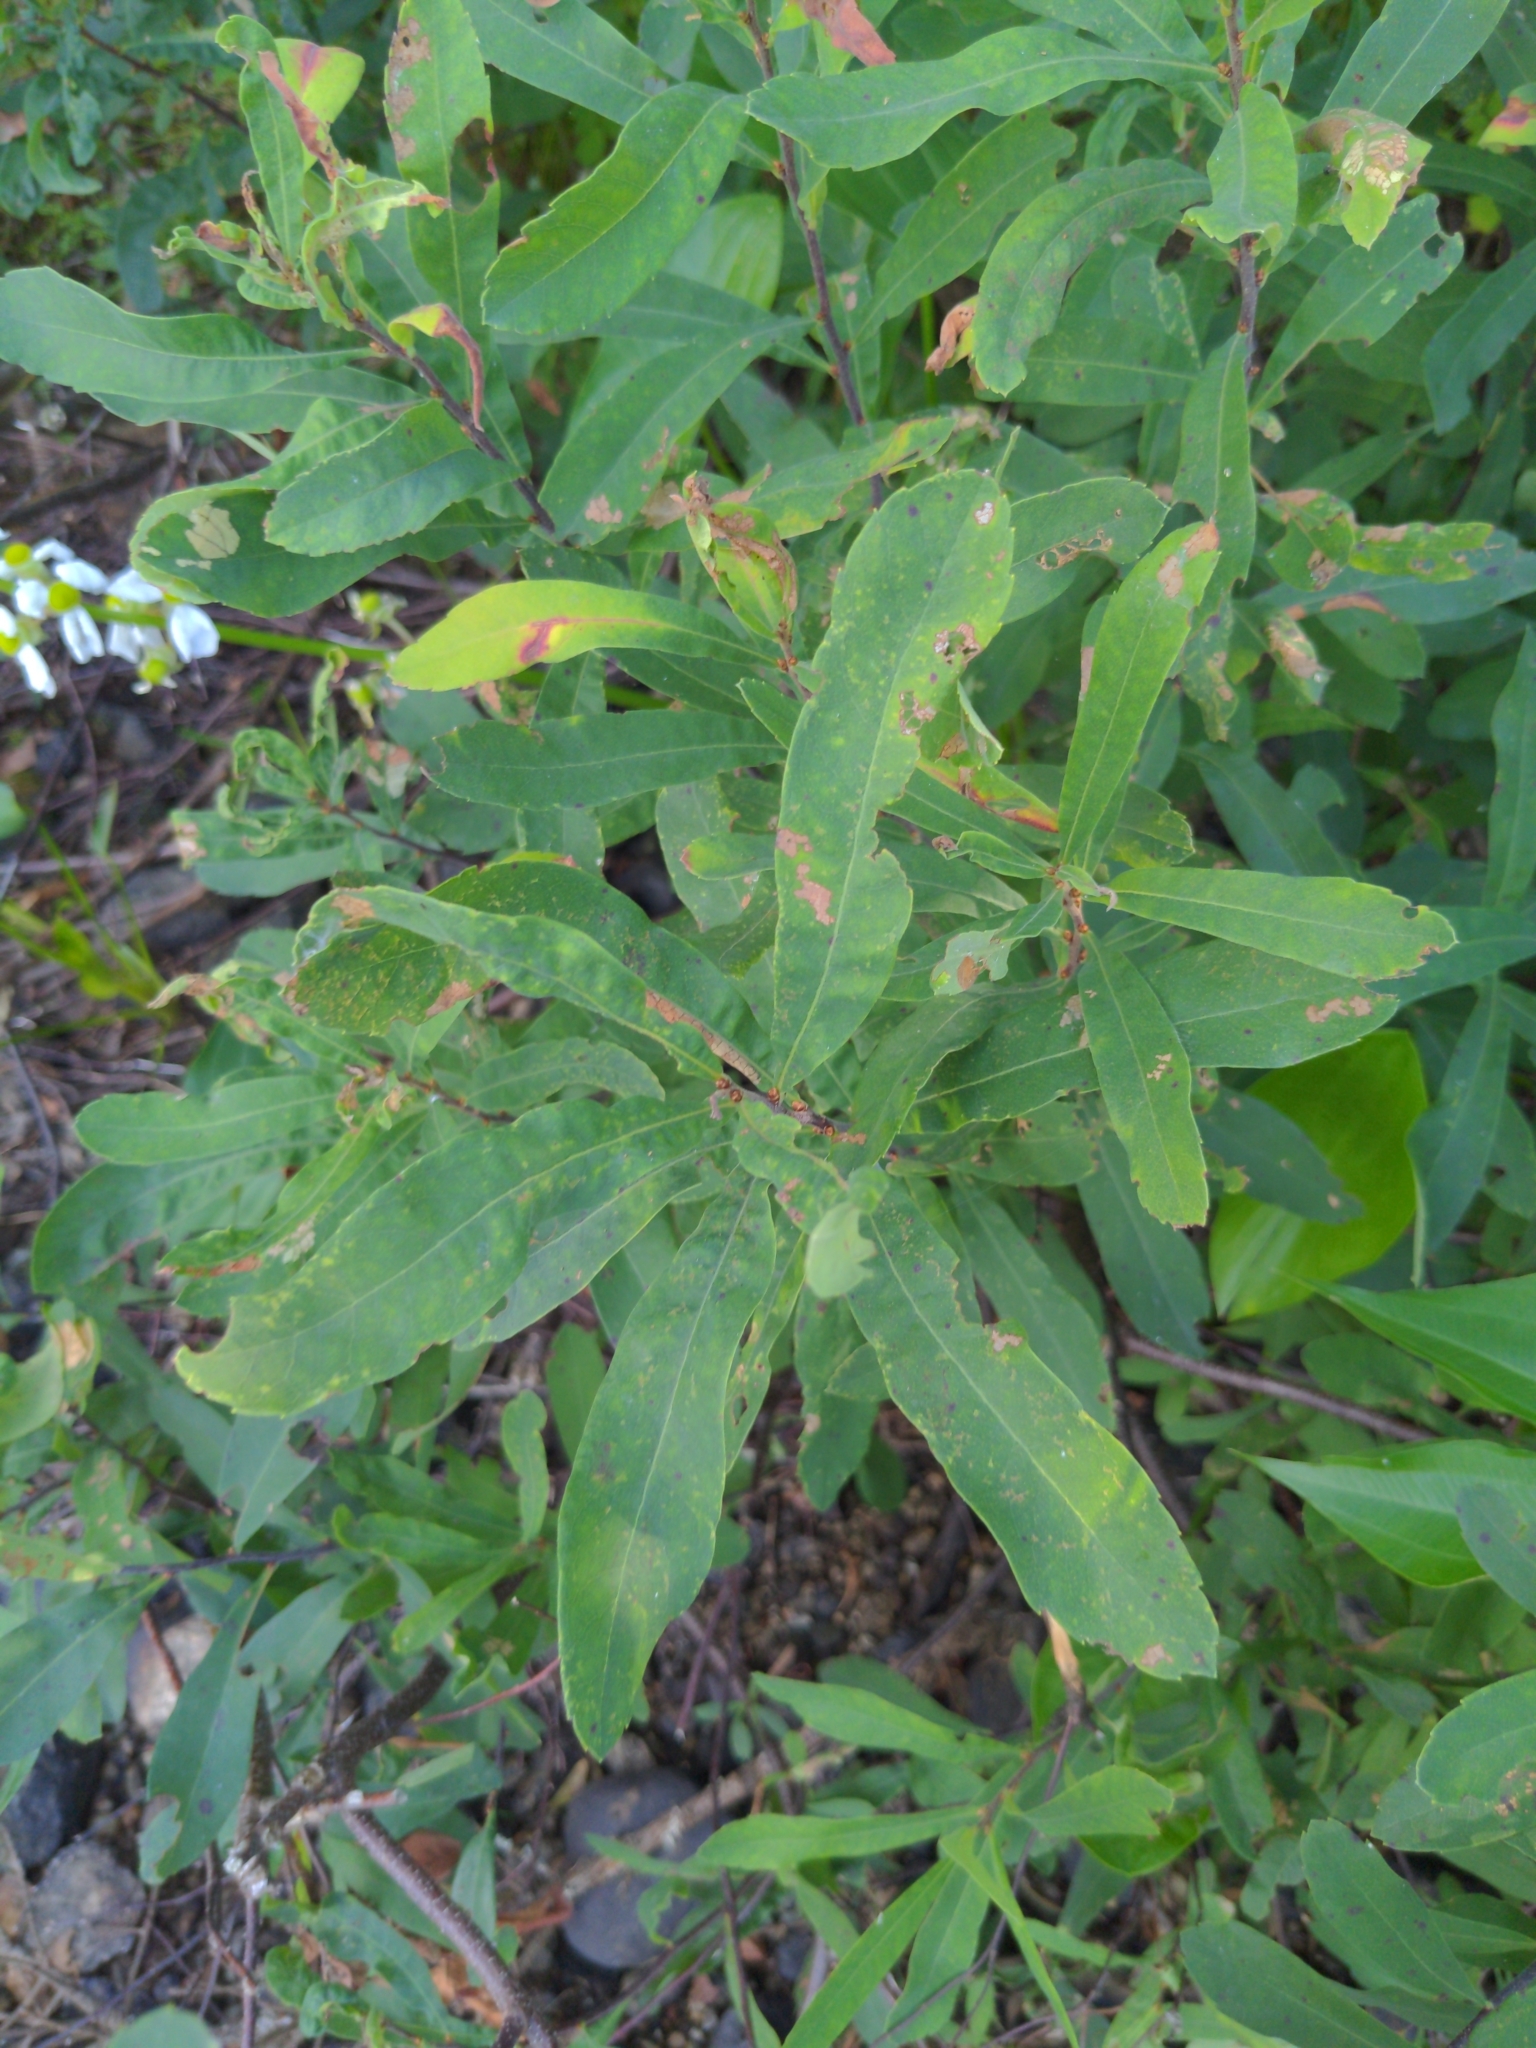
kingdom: Plantae
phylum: Tracheophyta
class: Magnoliopsida
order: Fagales
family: Myricaceae
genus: Myrica
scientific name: Myrica gale
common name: Sweet gale
